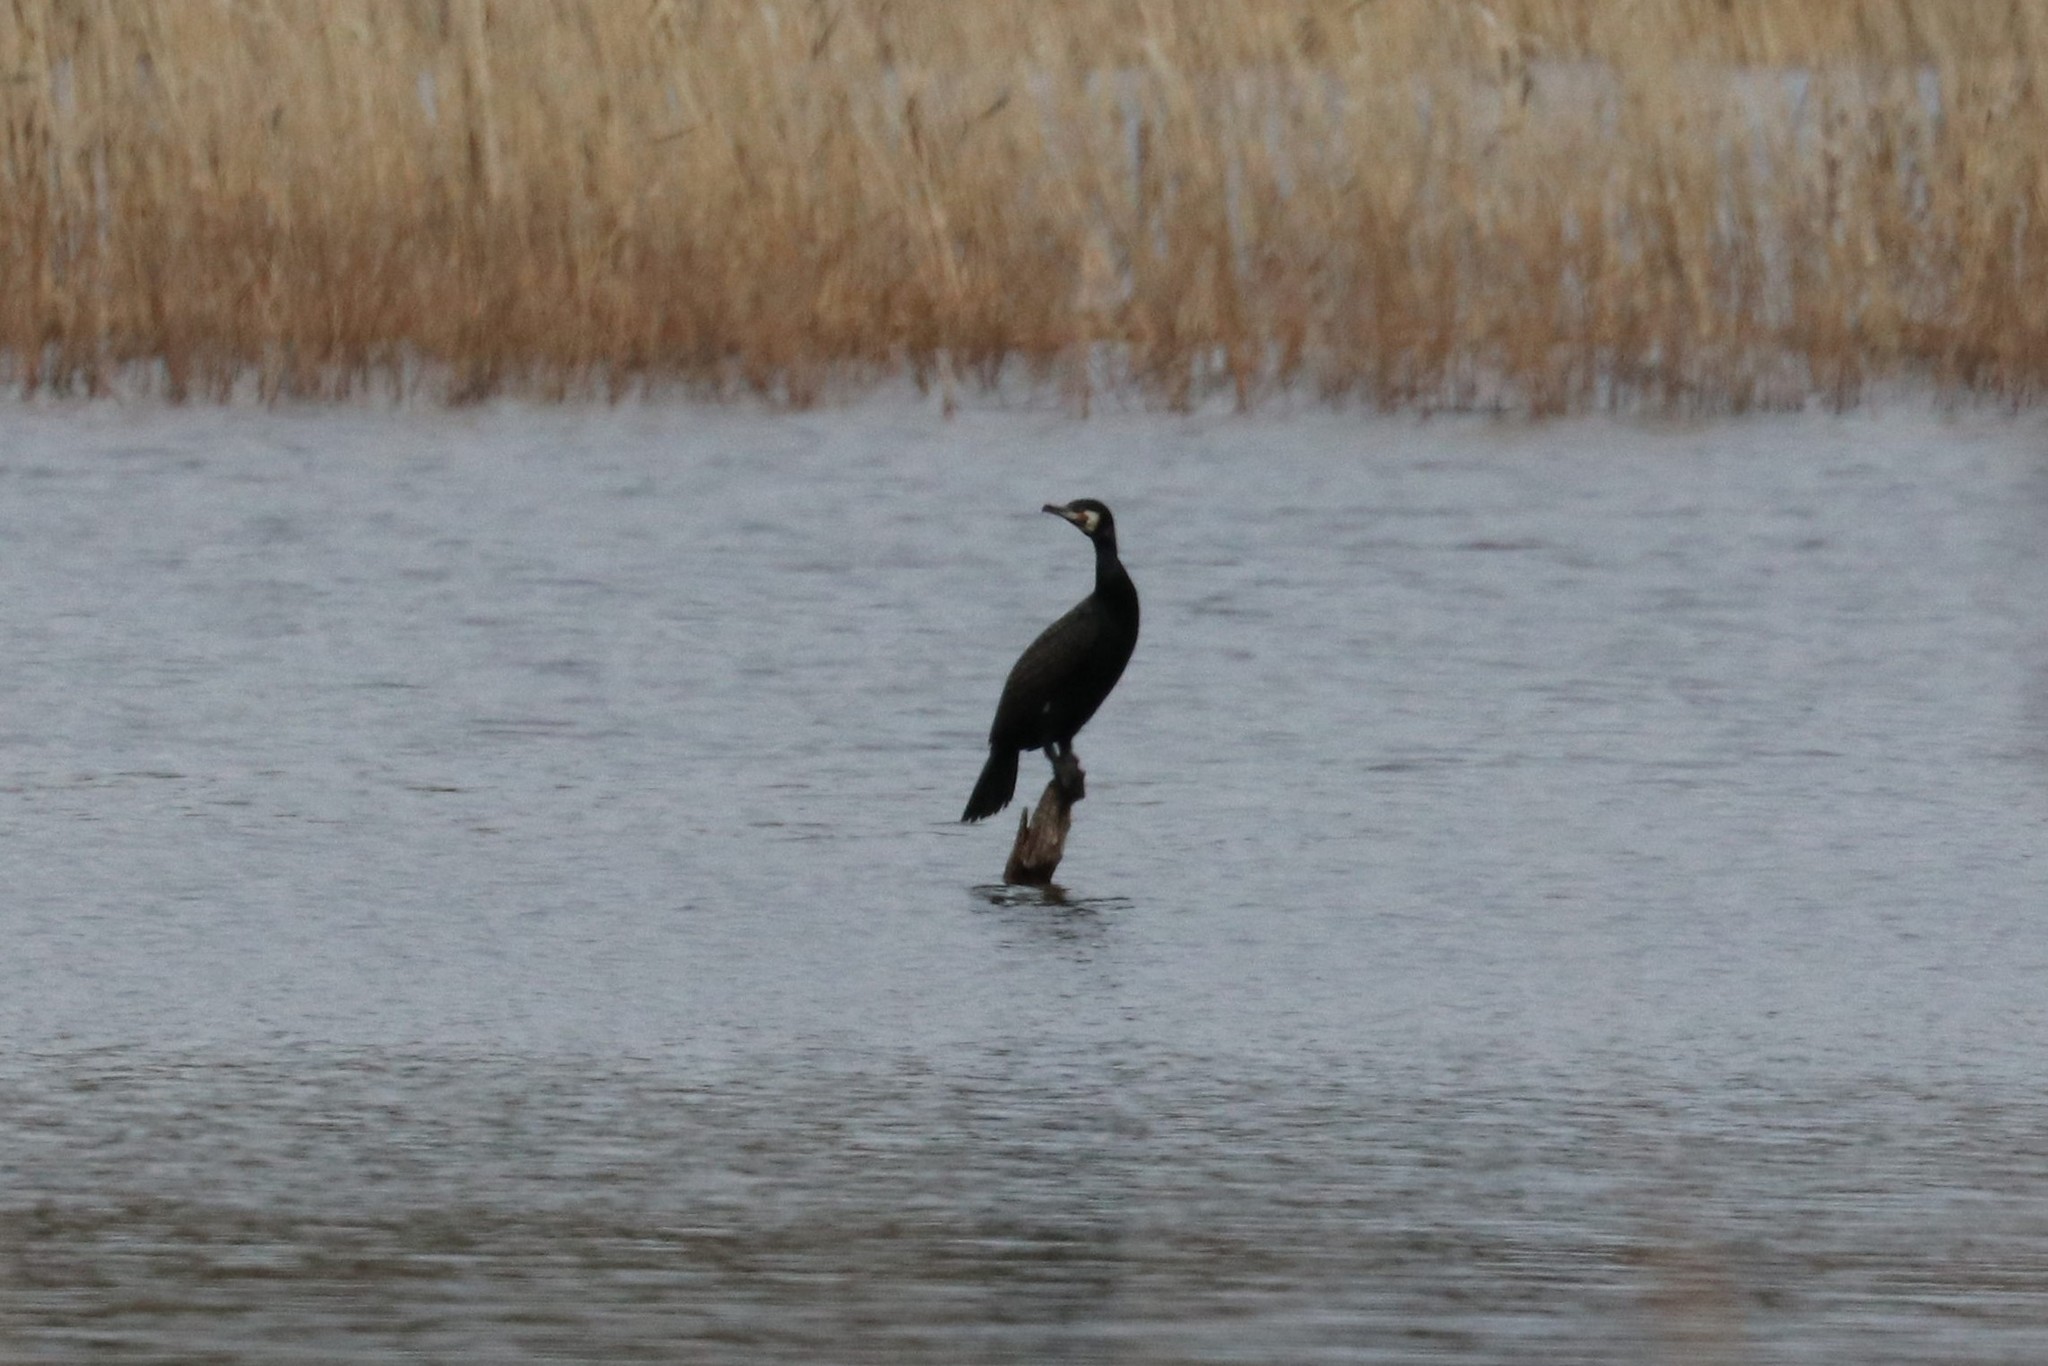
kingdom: Animalia
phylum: Chordata
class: Aves
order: Suliformes
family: Phalacrocoracidae
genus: Phalacrocorax
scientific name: Phalacrocorax carbo
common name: Great cormorant
